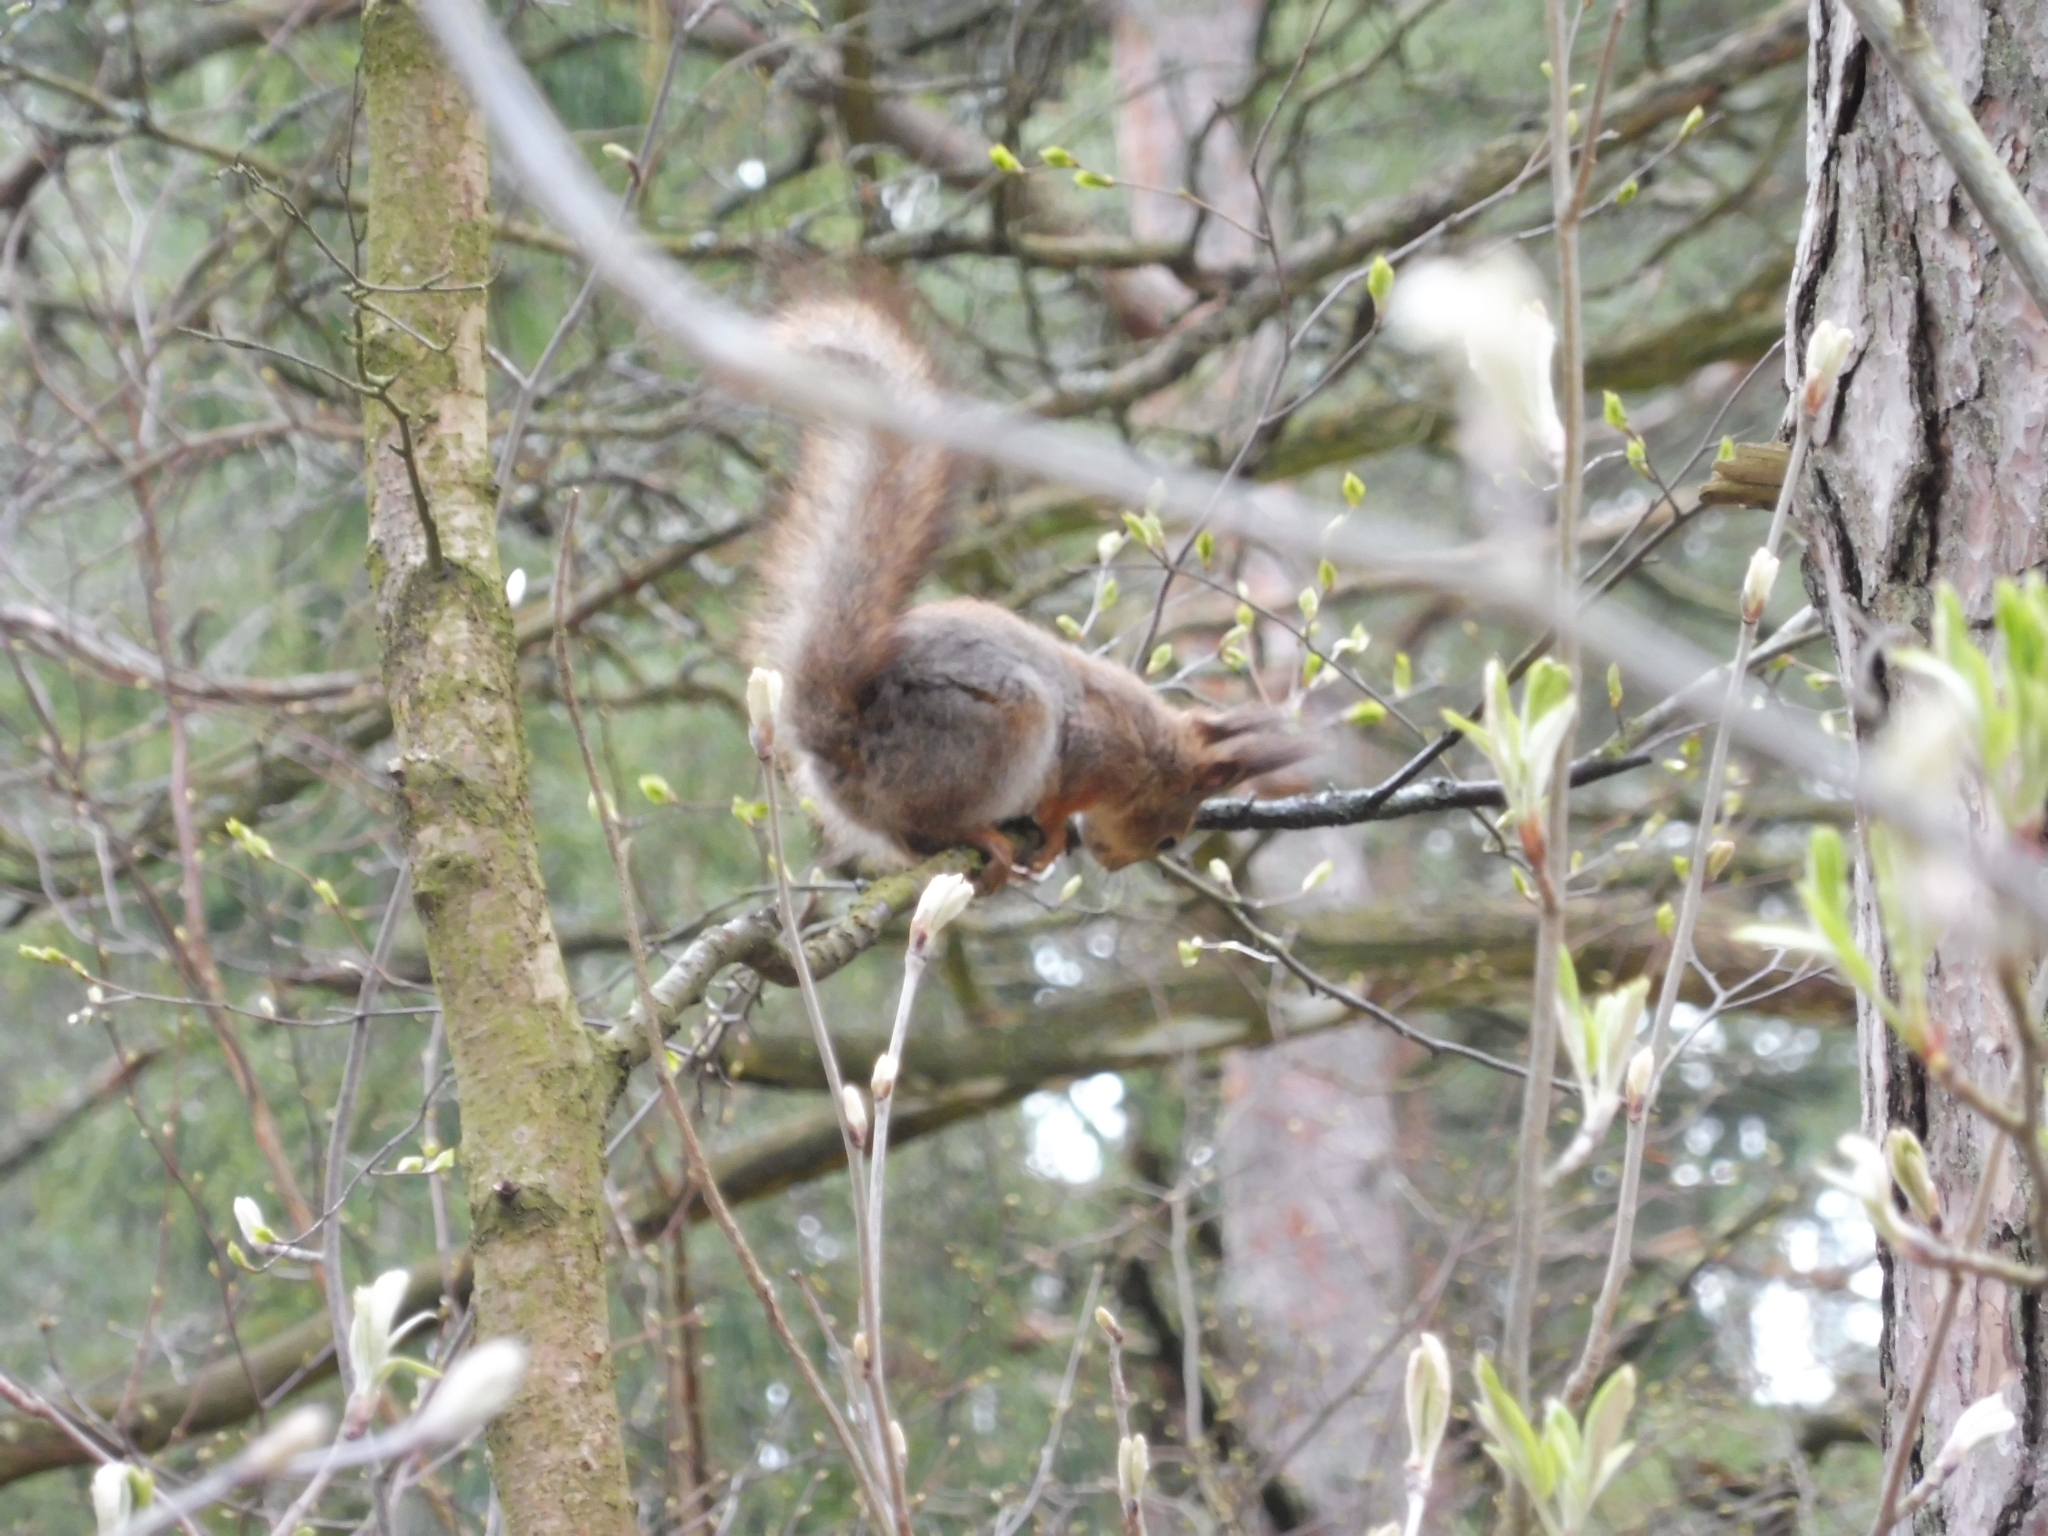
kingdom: Animalia
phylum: Chordata
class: Mammalia
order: Rodentia
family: Sciuridae
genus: Sciurus
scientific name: Sciurus vulgaris
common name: Eurasian red squirrel
